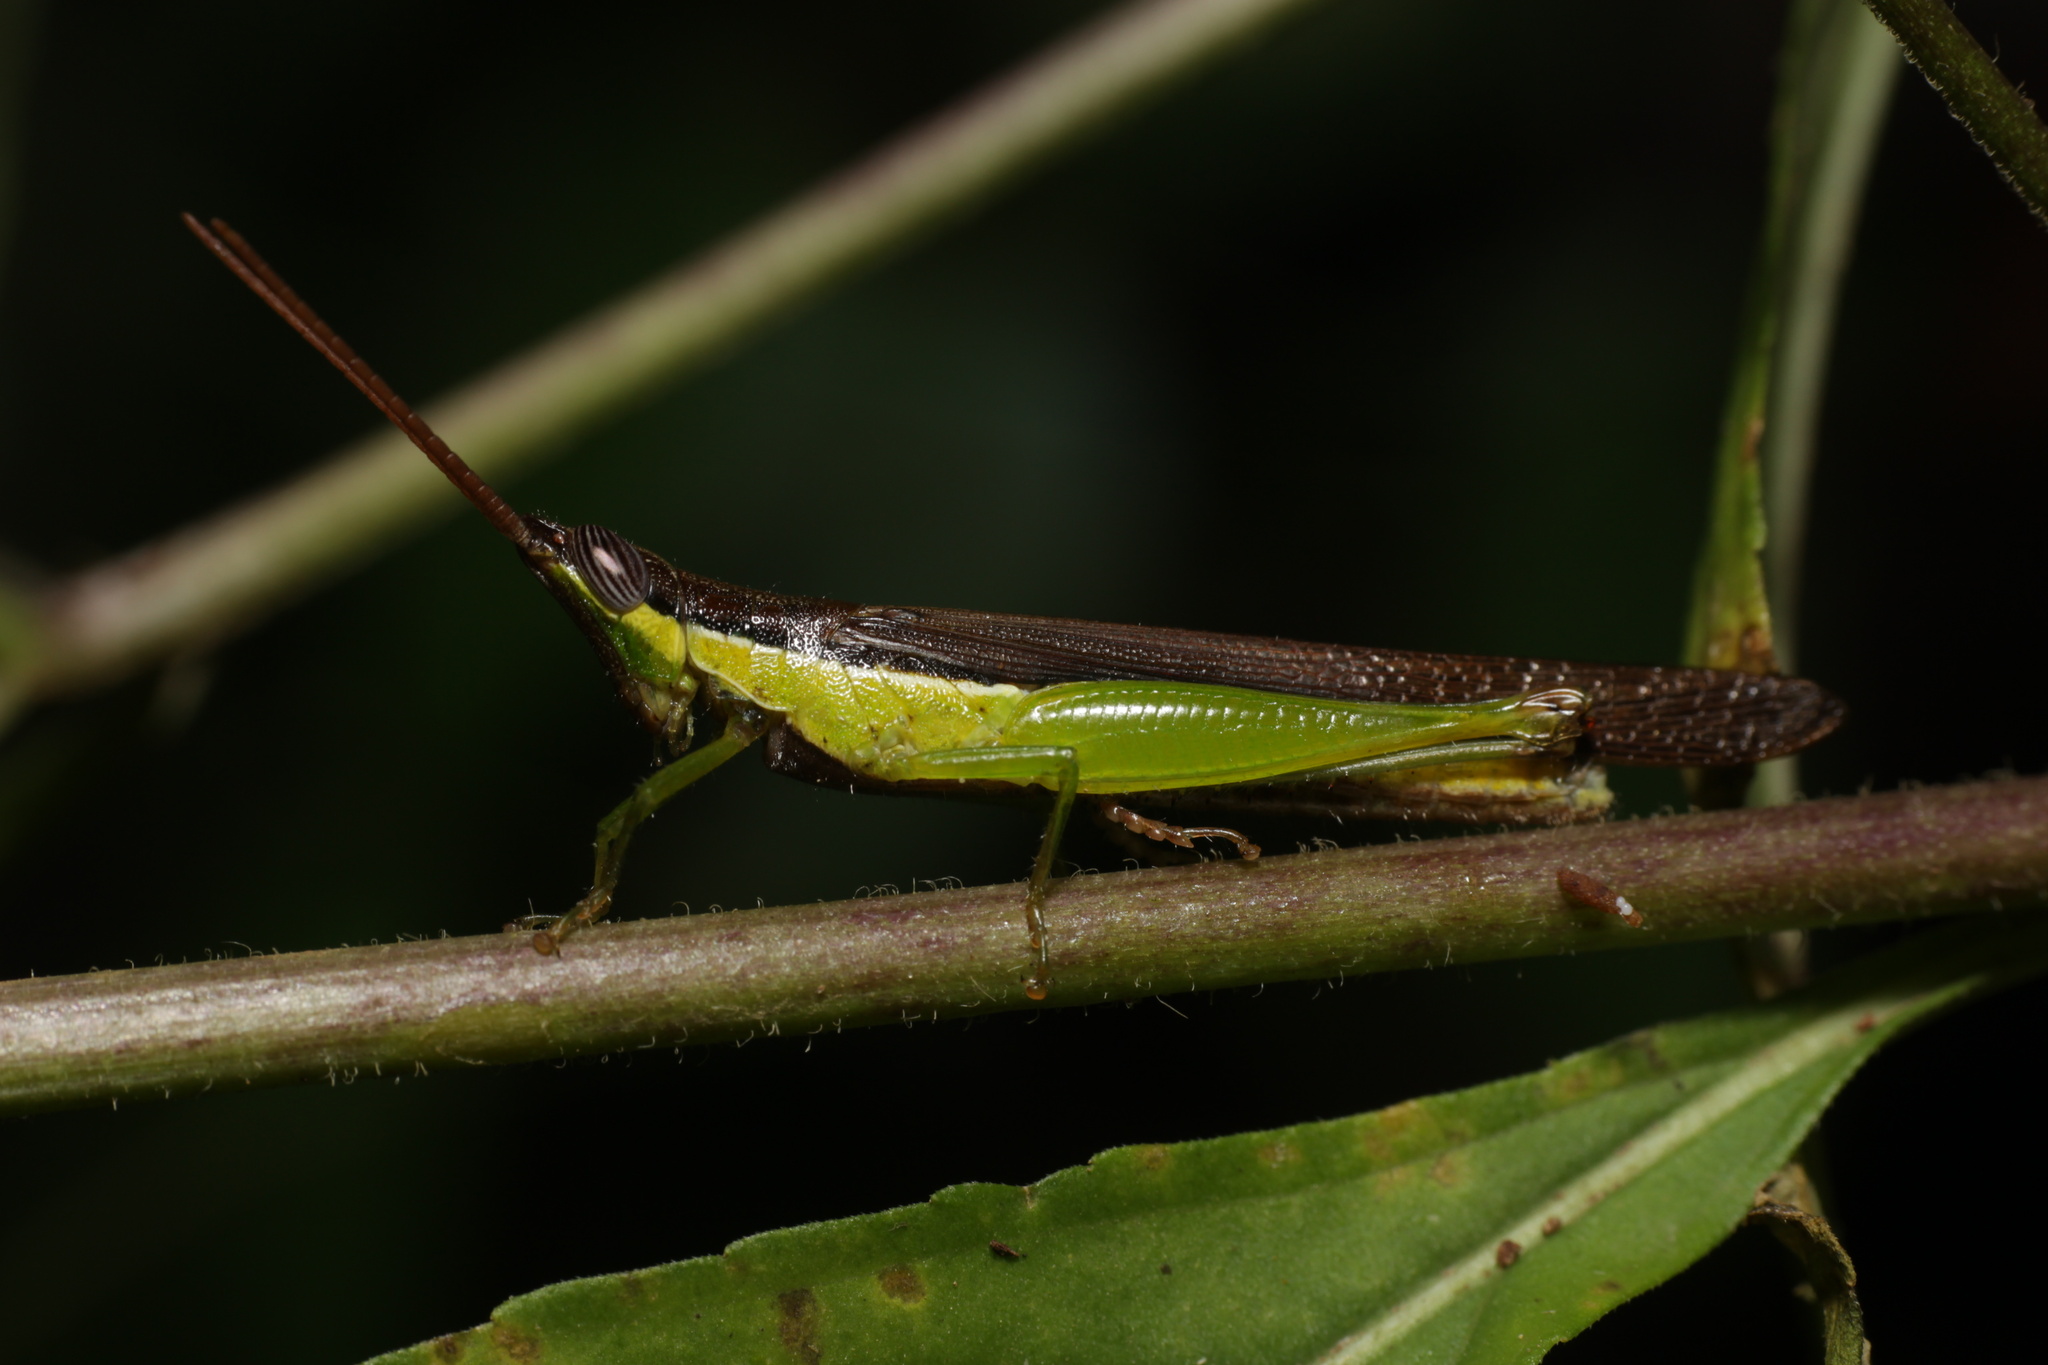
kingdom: Animalia
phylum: Arthropoda
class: Insecta
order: Orthoptera
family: Acrididae
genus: Stenopola
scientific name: Stenopola dorsalis
